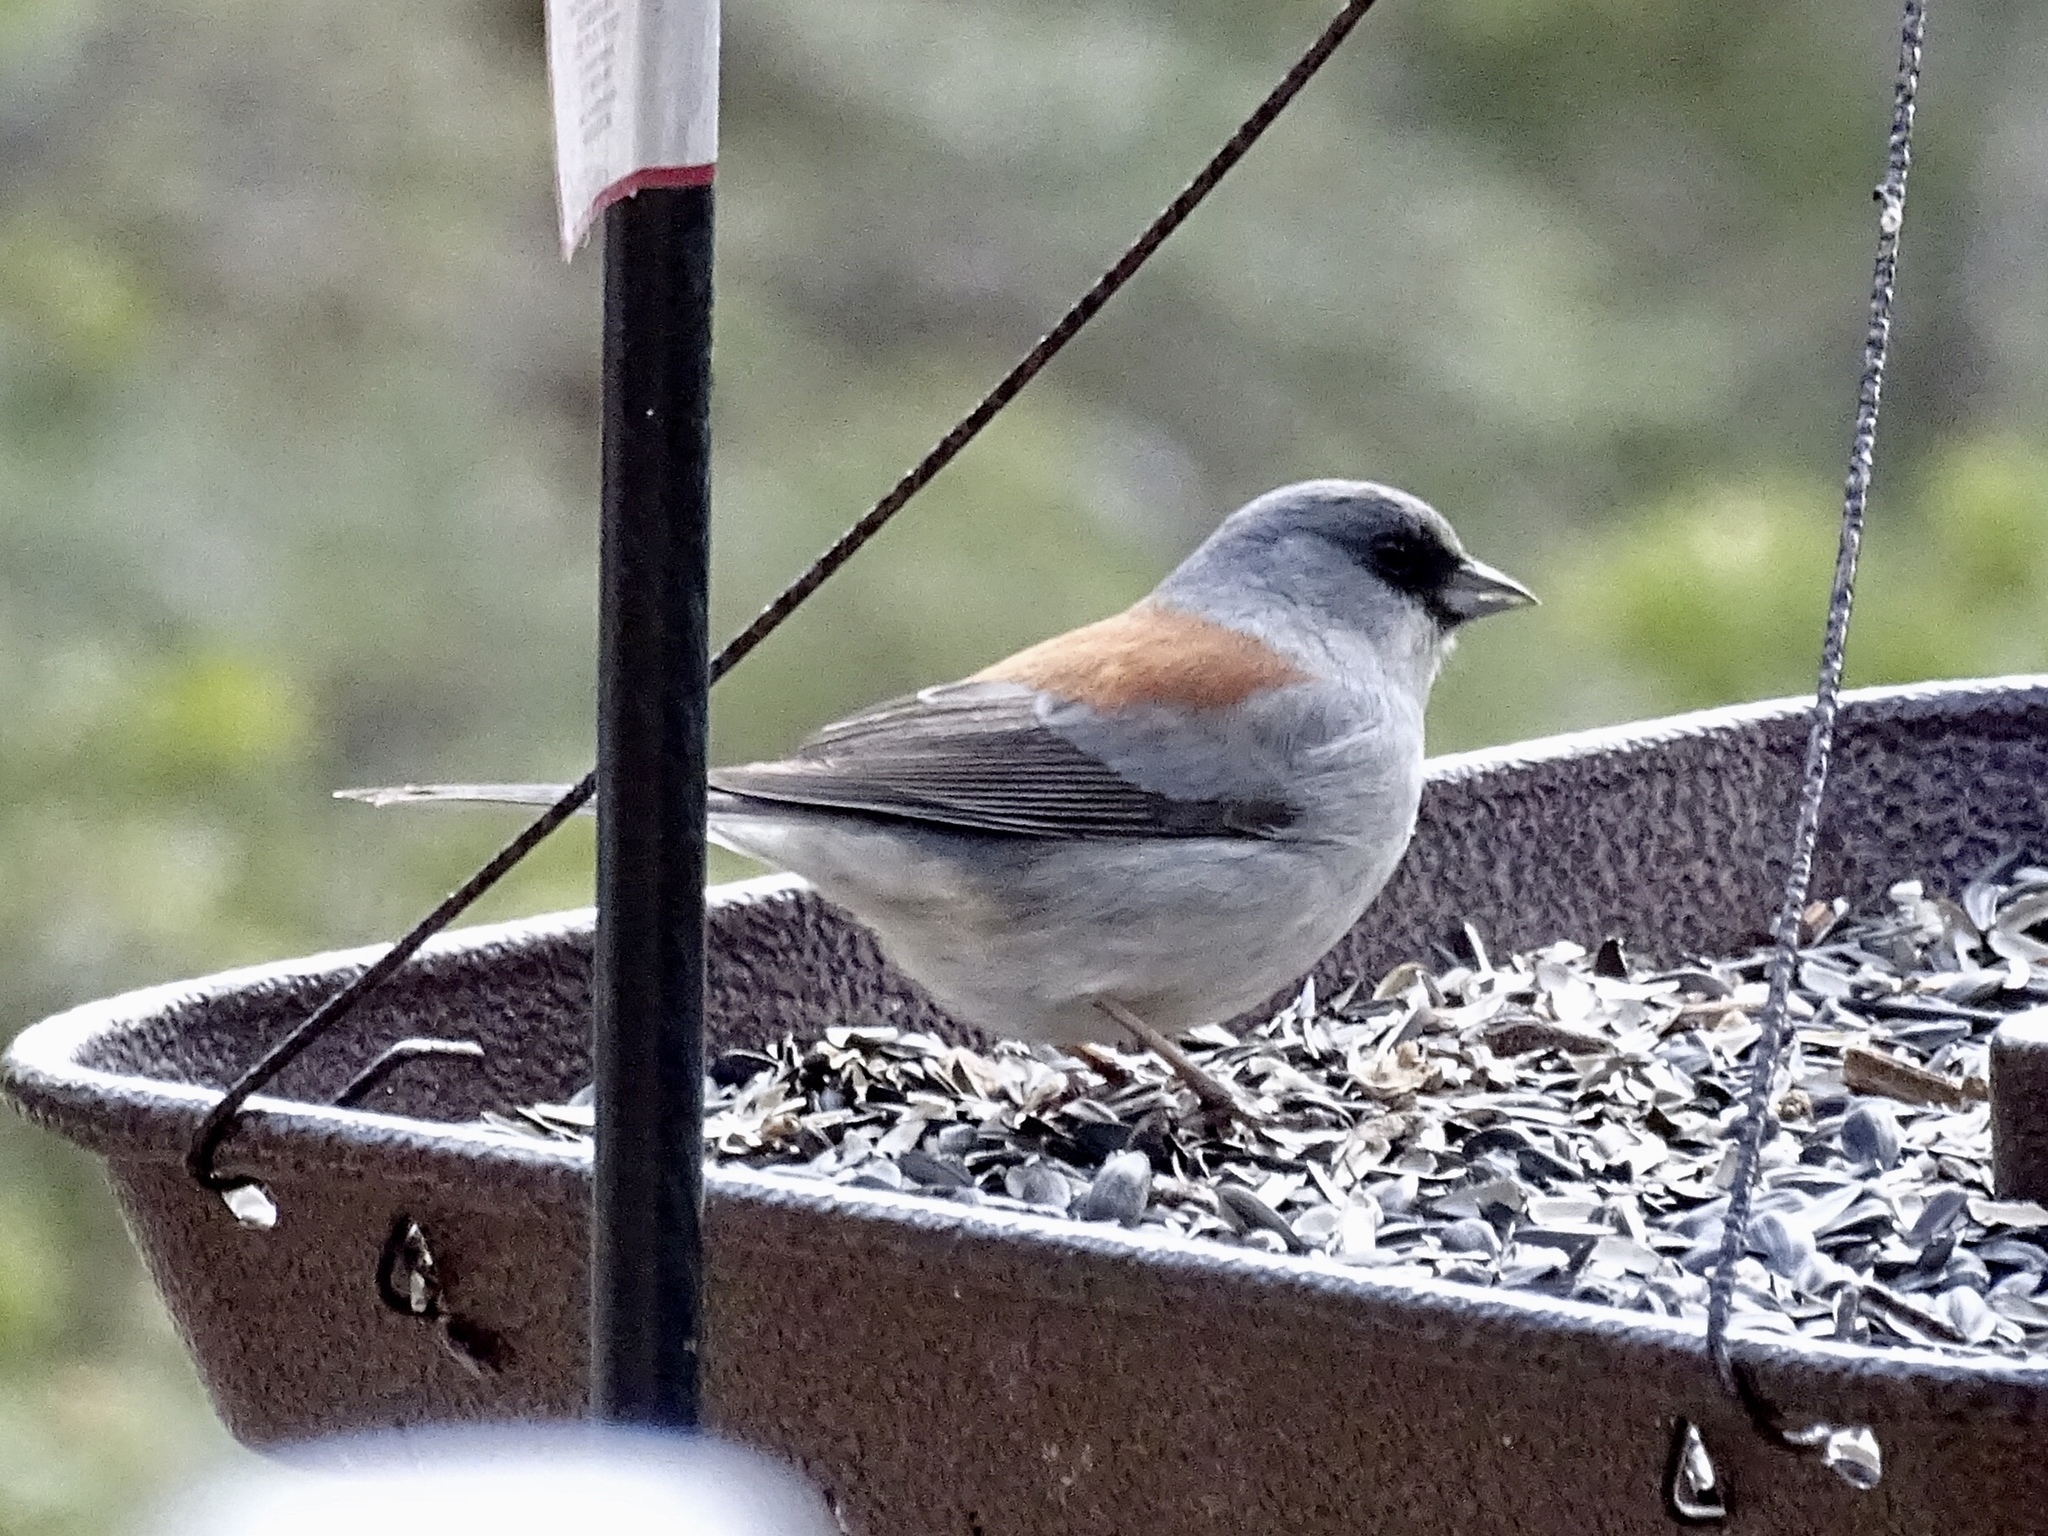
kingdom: Animalia
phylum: Chordata
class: Aves
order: Passeriformes
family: Passerellidae
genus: Junco
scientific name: Junco hyemalis
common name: Dark-eyed junco
